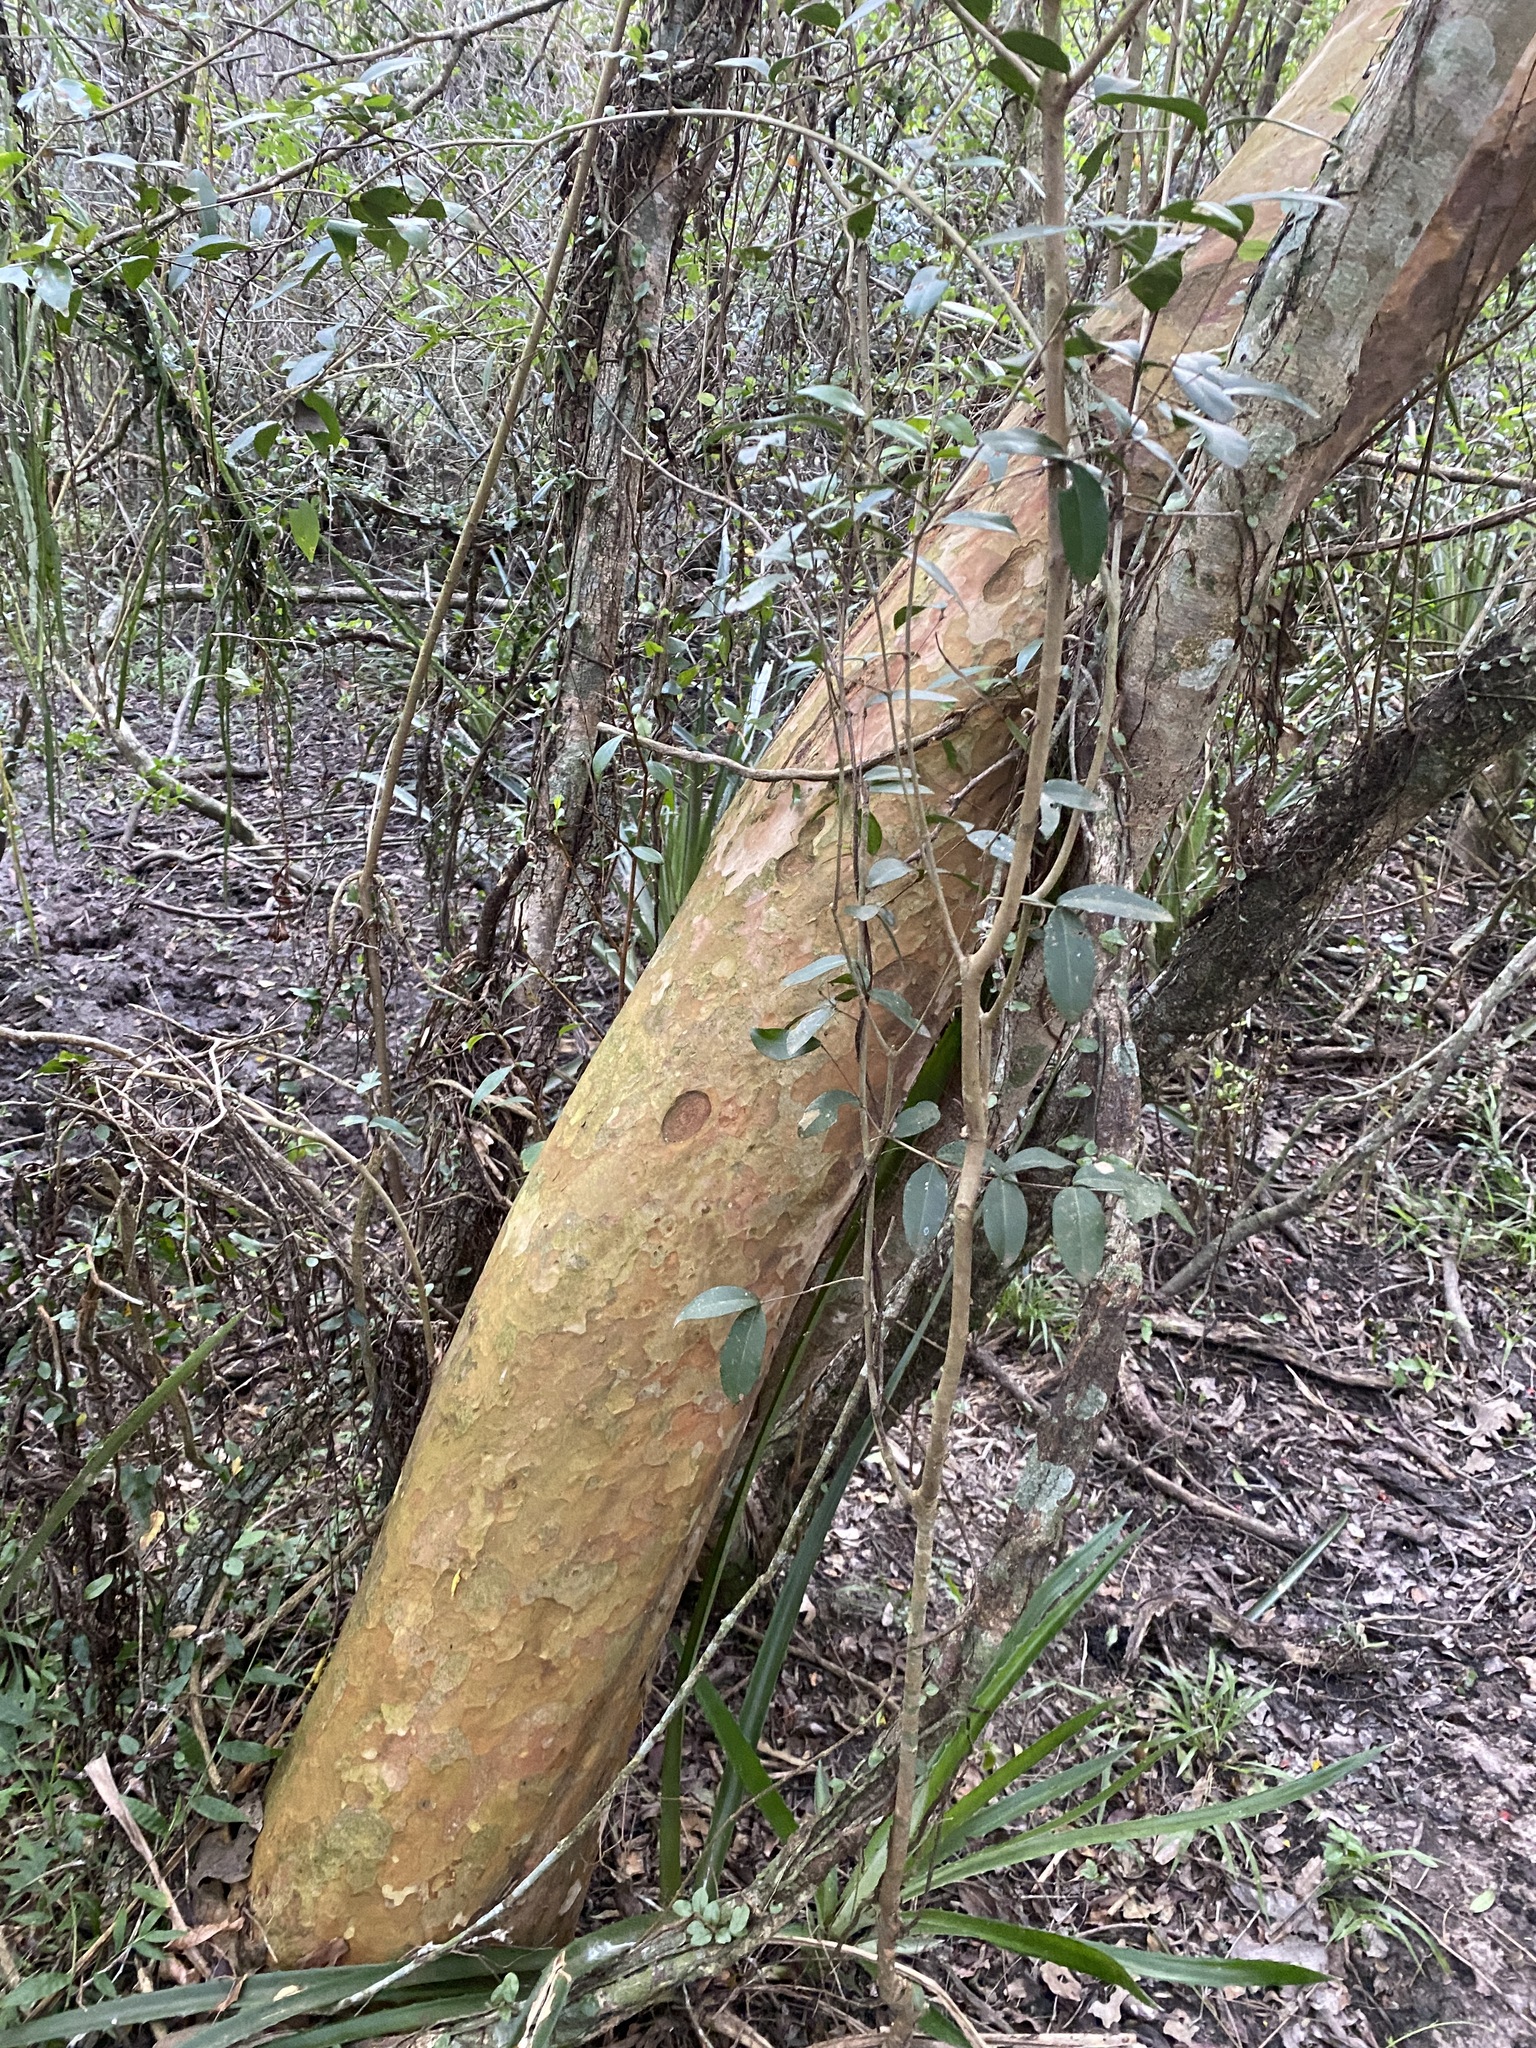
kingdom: Plantae
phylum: Tracheophyta
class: Magnoliopsida
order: Myrtales
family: Myrtaceae
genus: Myrcianthes
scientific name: Myrcianthes cisplatensis
